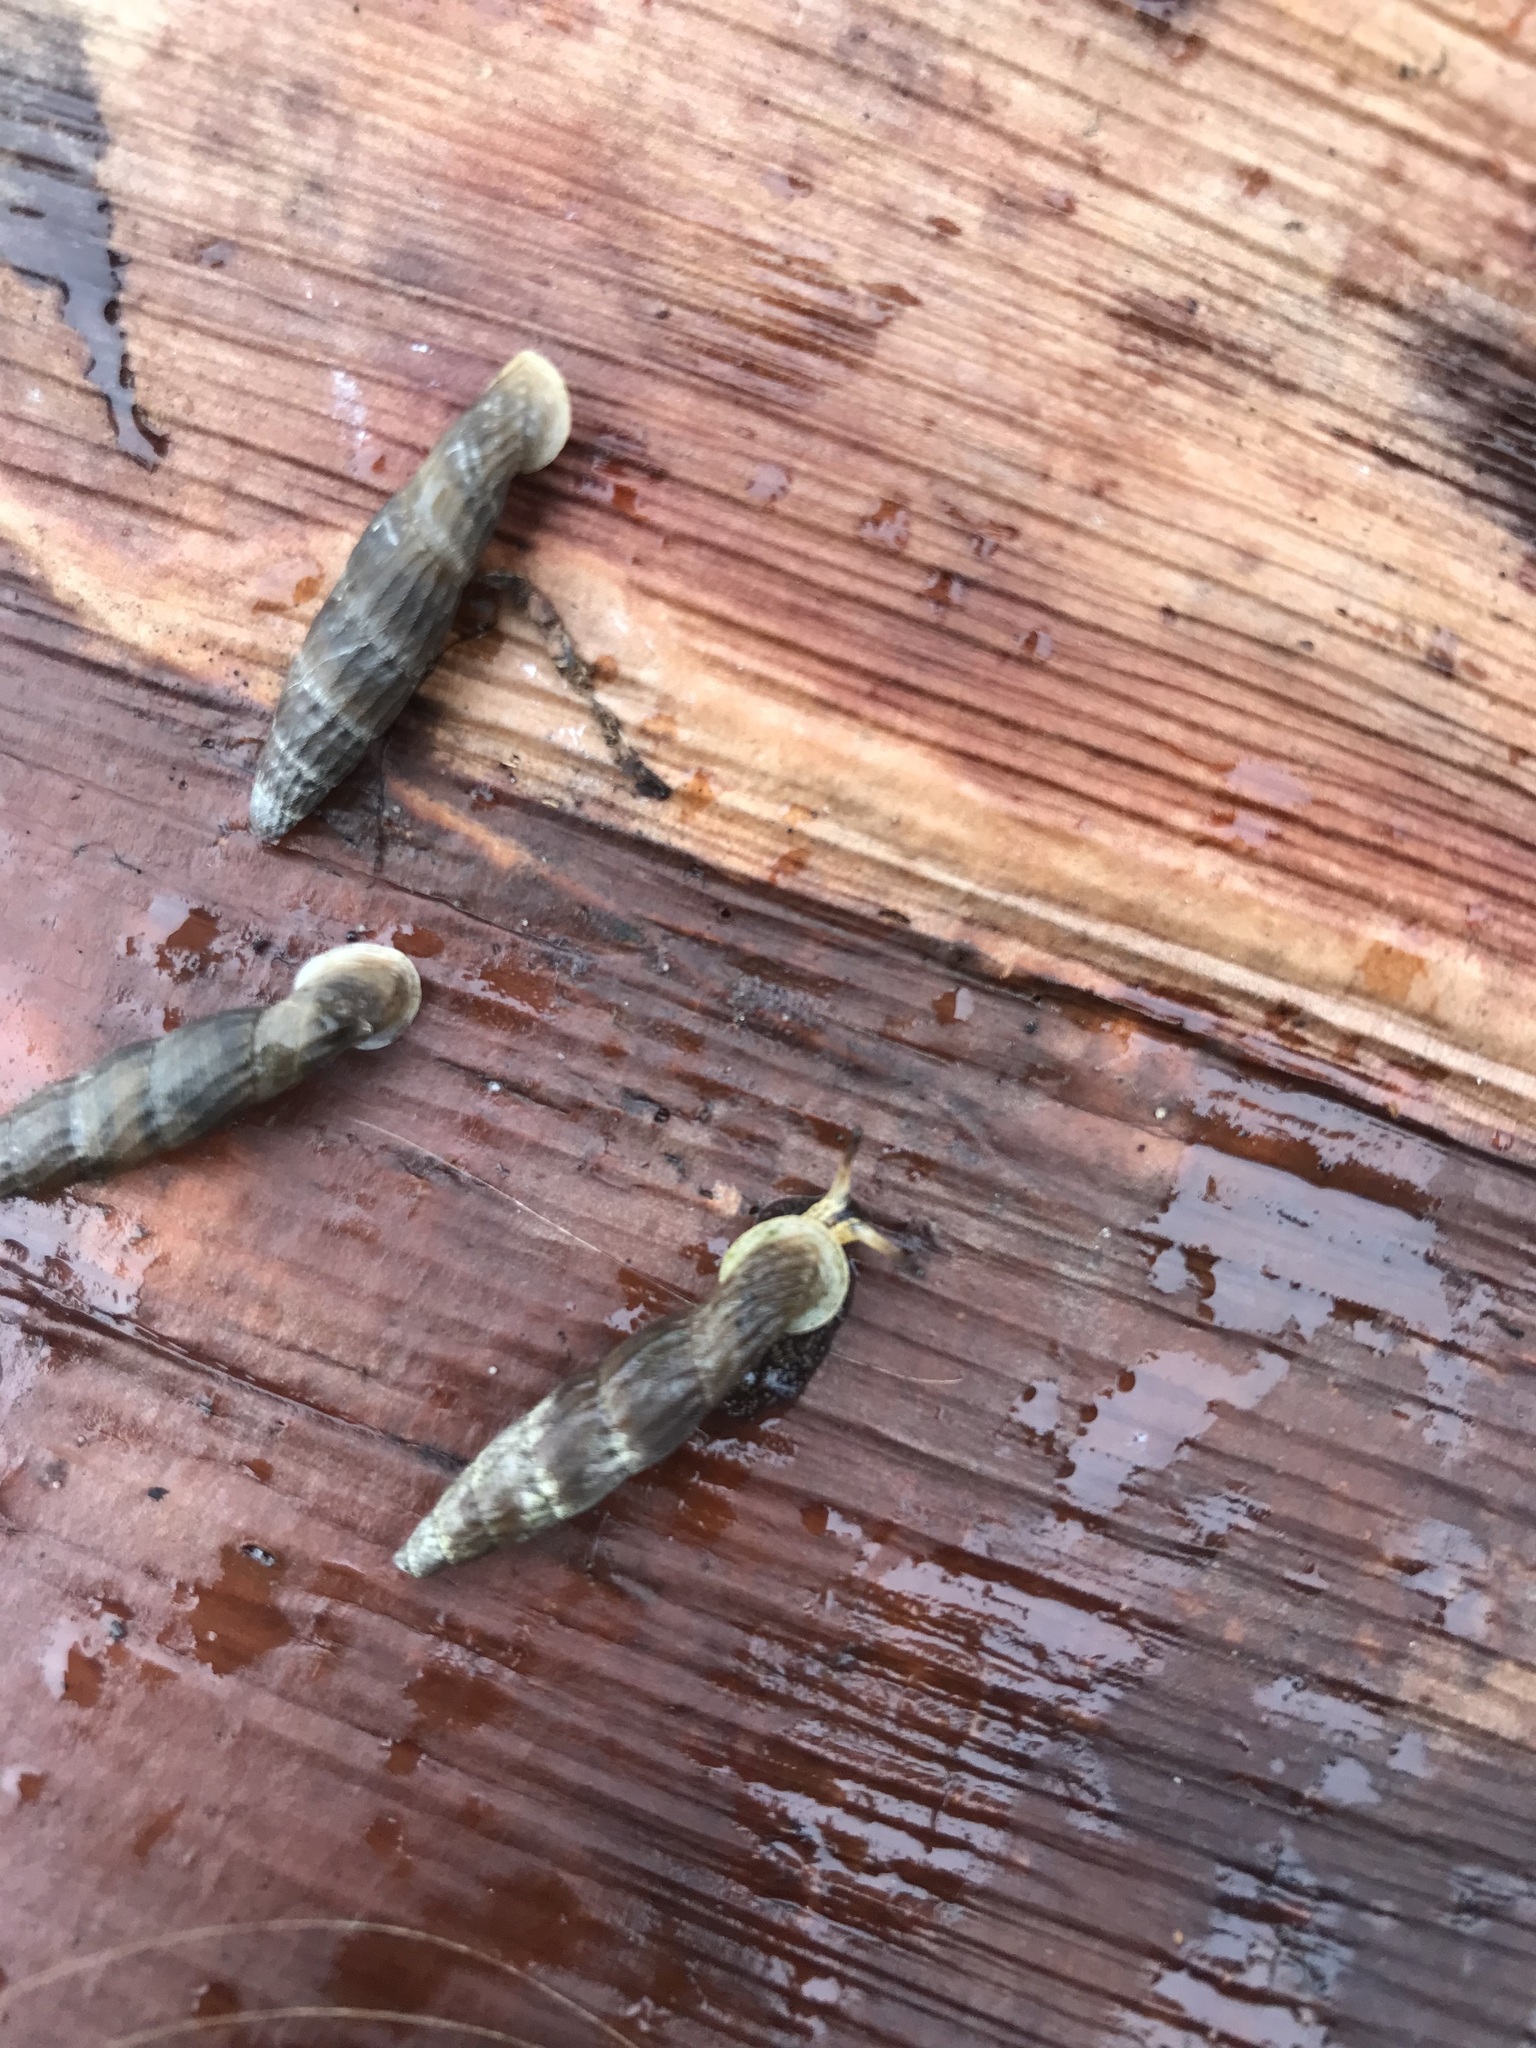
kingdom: Animalia
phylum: Mollusca
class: Gastropoda
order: Stylommatophora
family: Clausiliidae
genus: Nenia
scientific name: Nenia tridens
